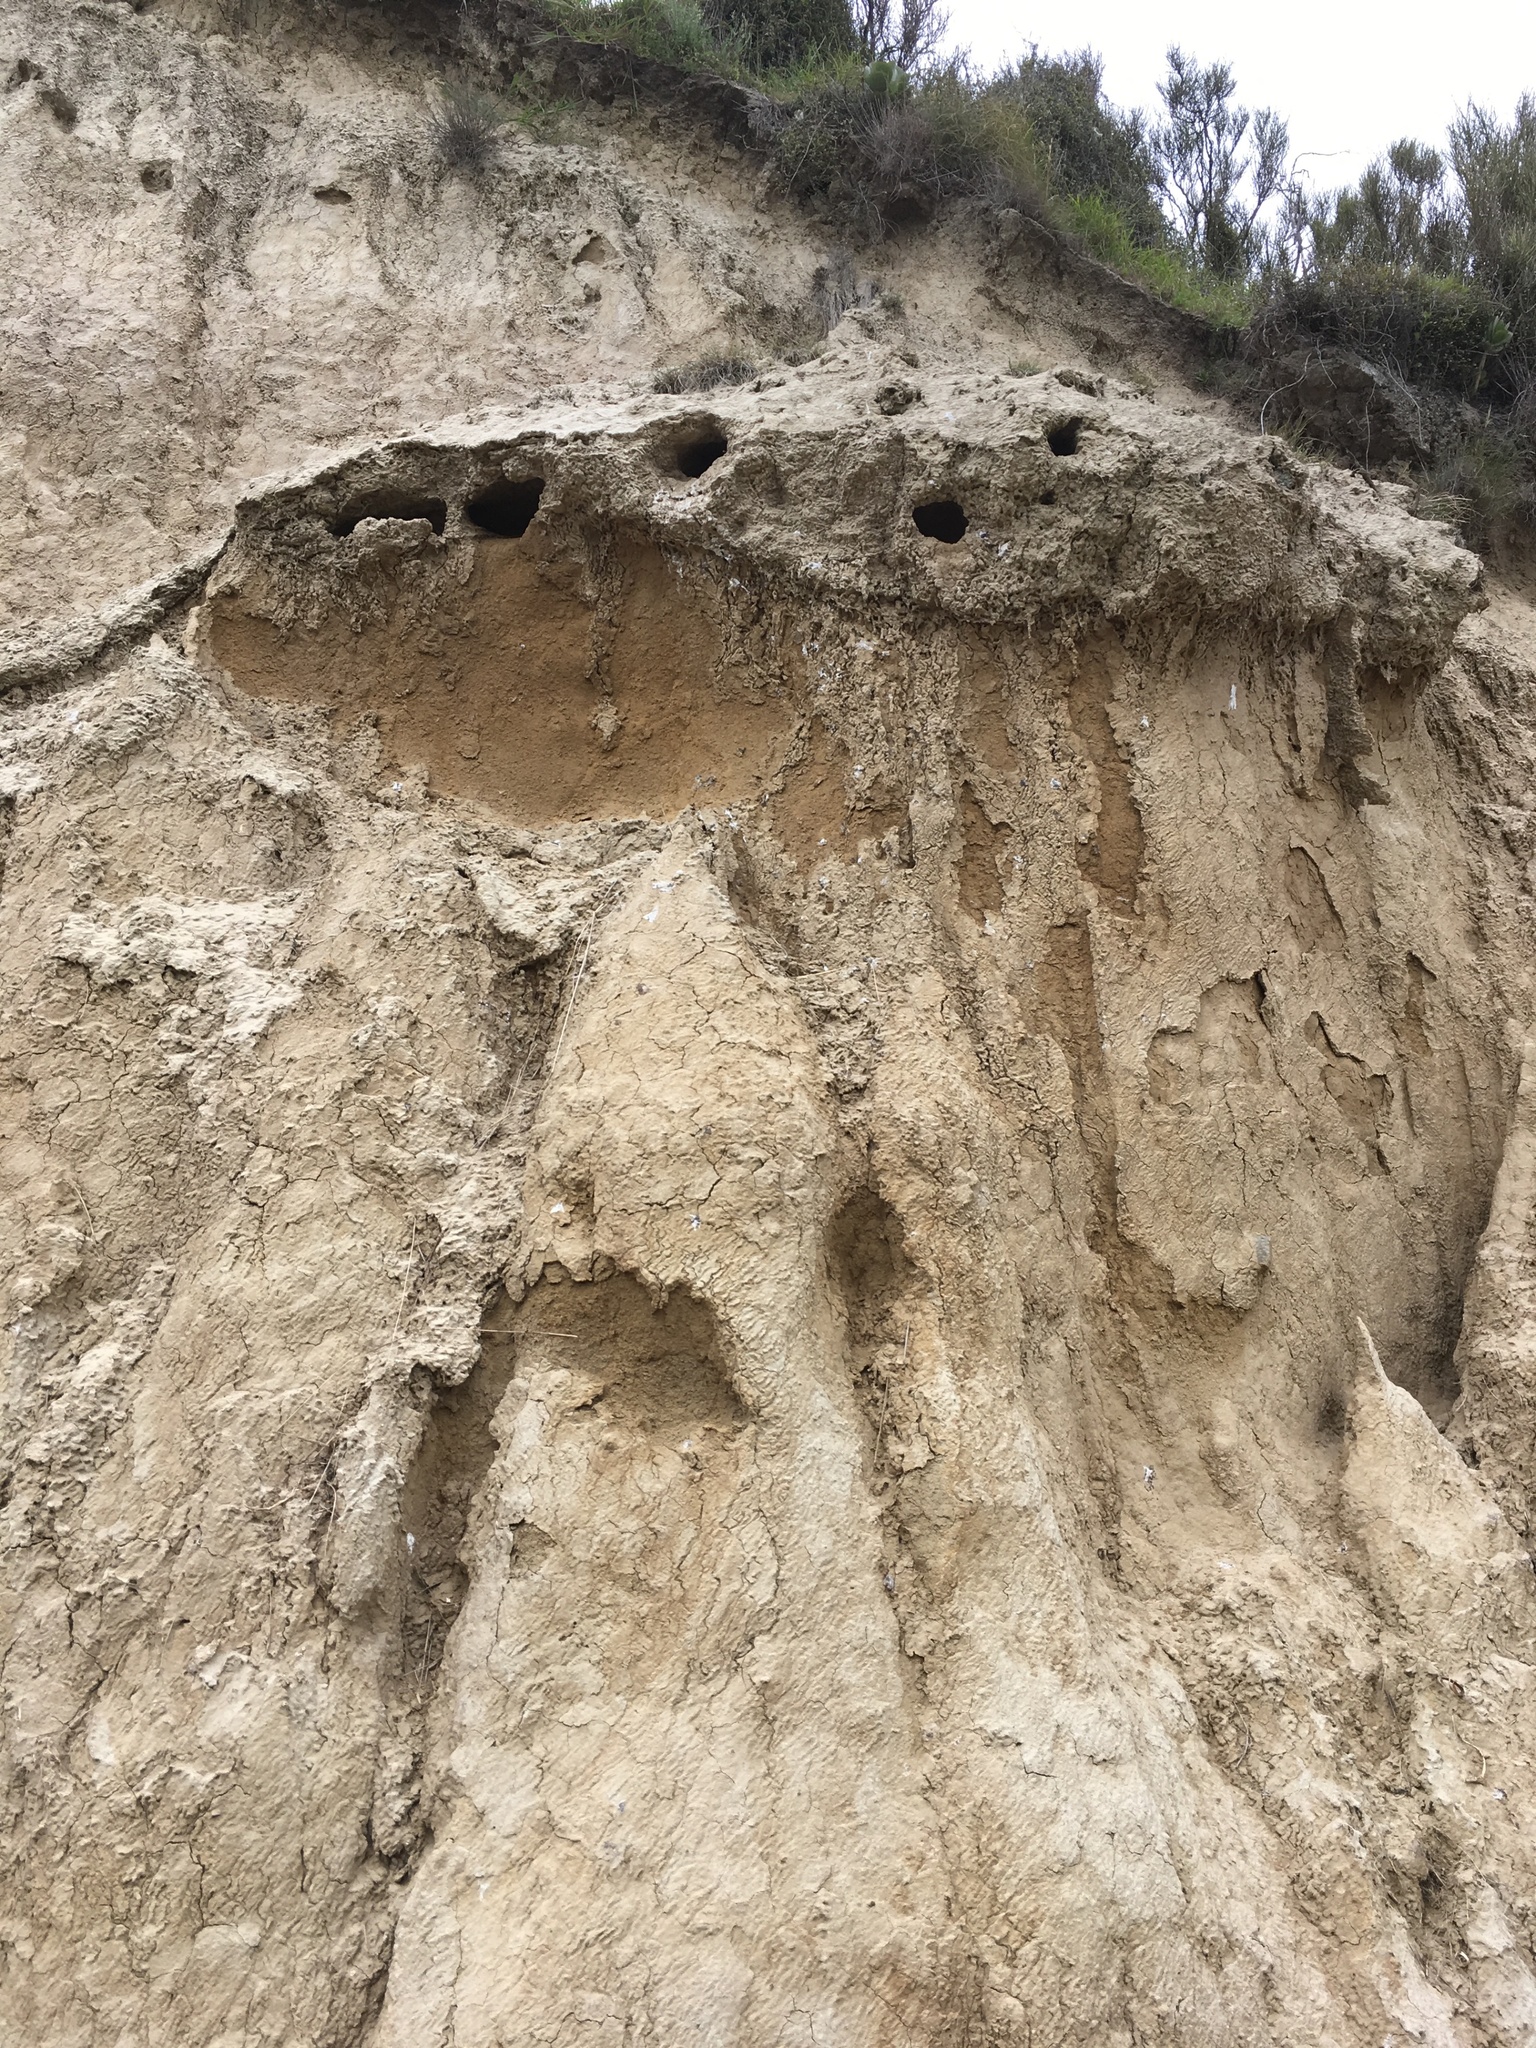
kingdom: Animalia
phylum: Chordata
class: Aves
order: Coraciiformes
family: Alcedinidae
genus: Todiramphus
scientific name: Todiramphus sanctus
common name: Sacred kingfisher
